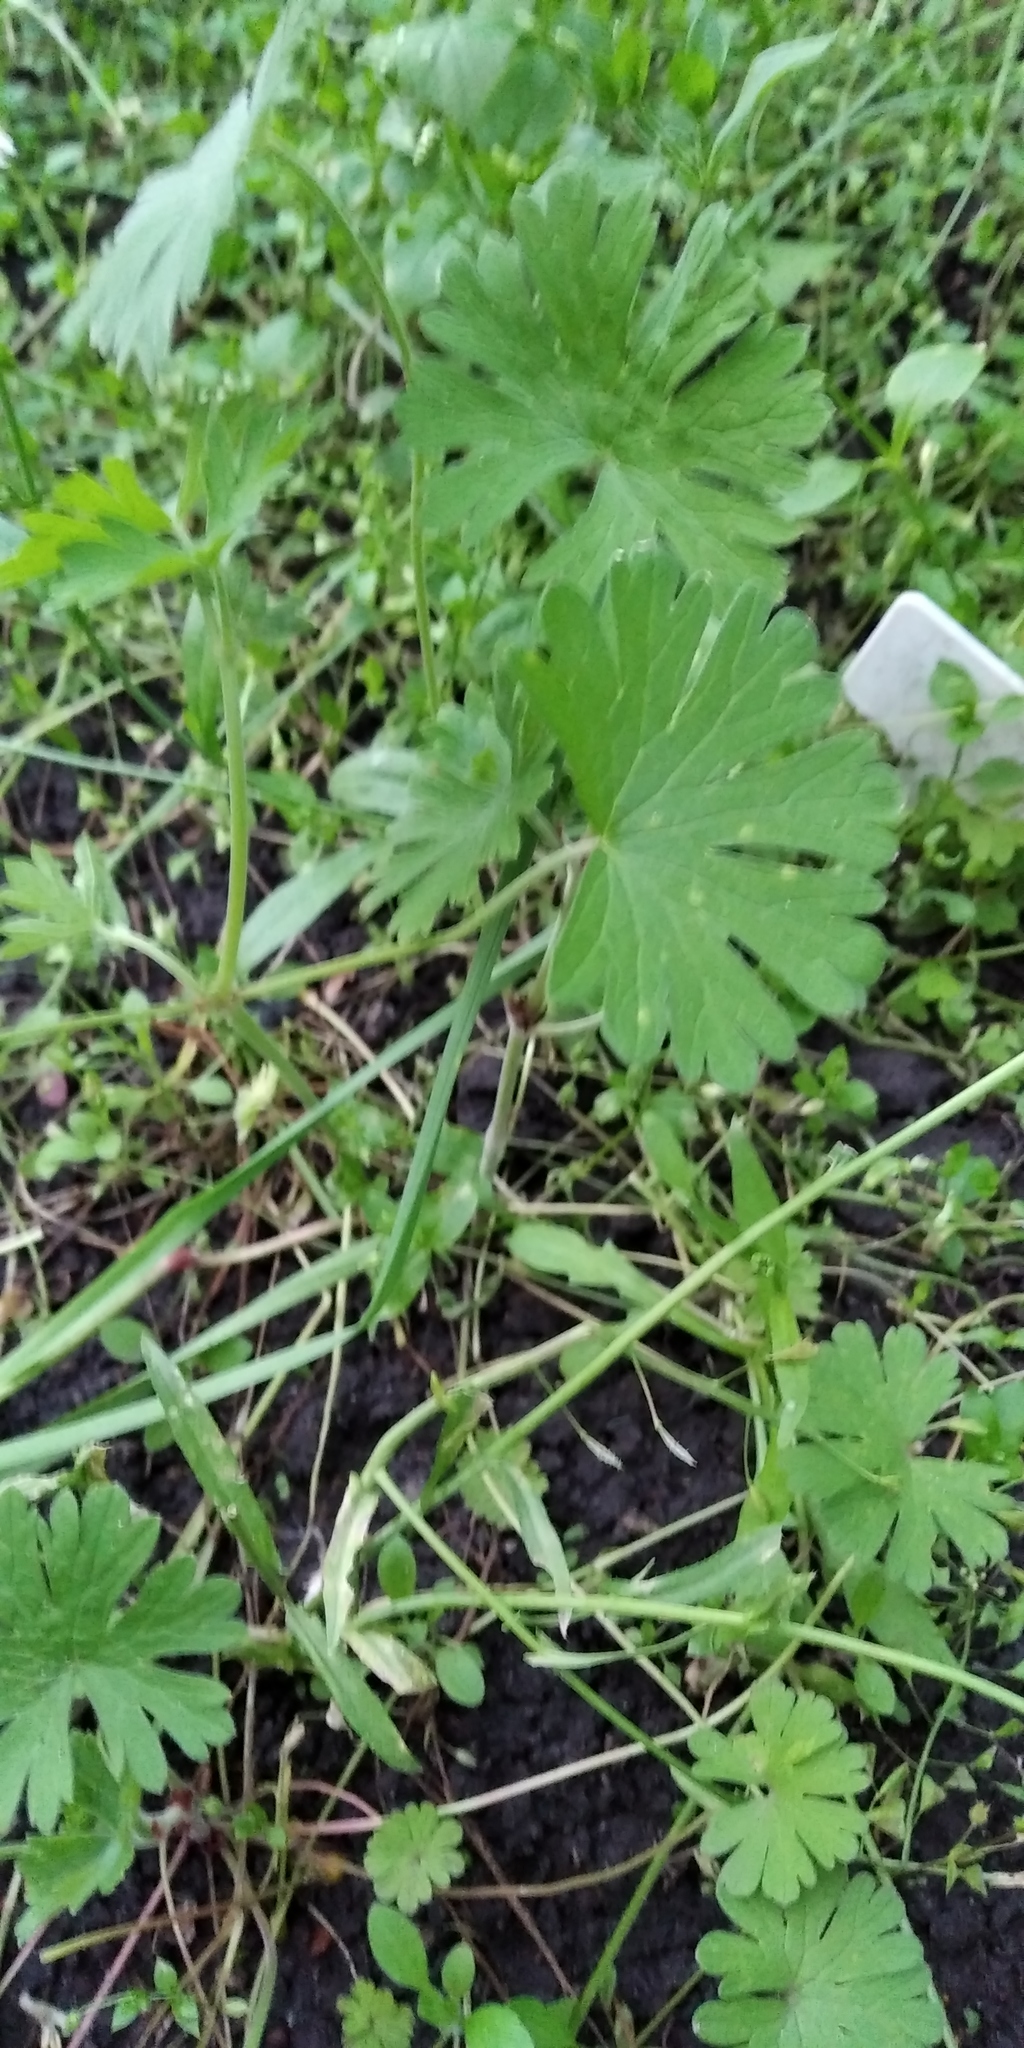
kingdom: Plantae
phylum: Tracheophyta
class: Magnoliopsida
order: Geraniales
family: Geraniaceae
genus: Geranium
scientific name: Geranium pusillum
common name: Small geranium
